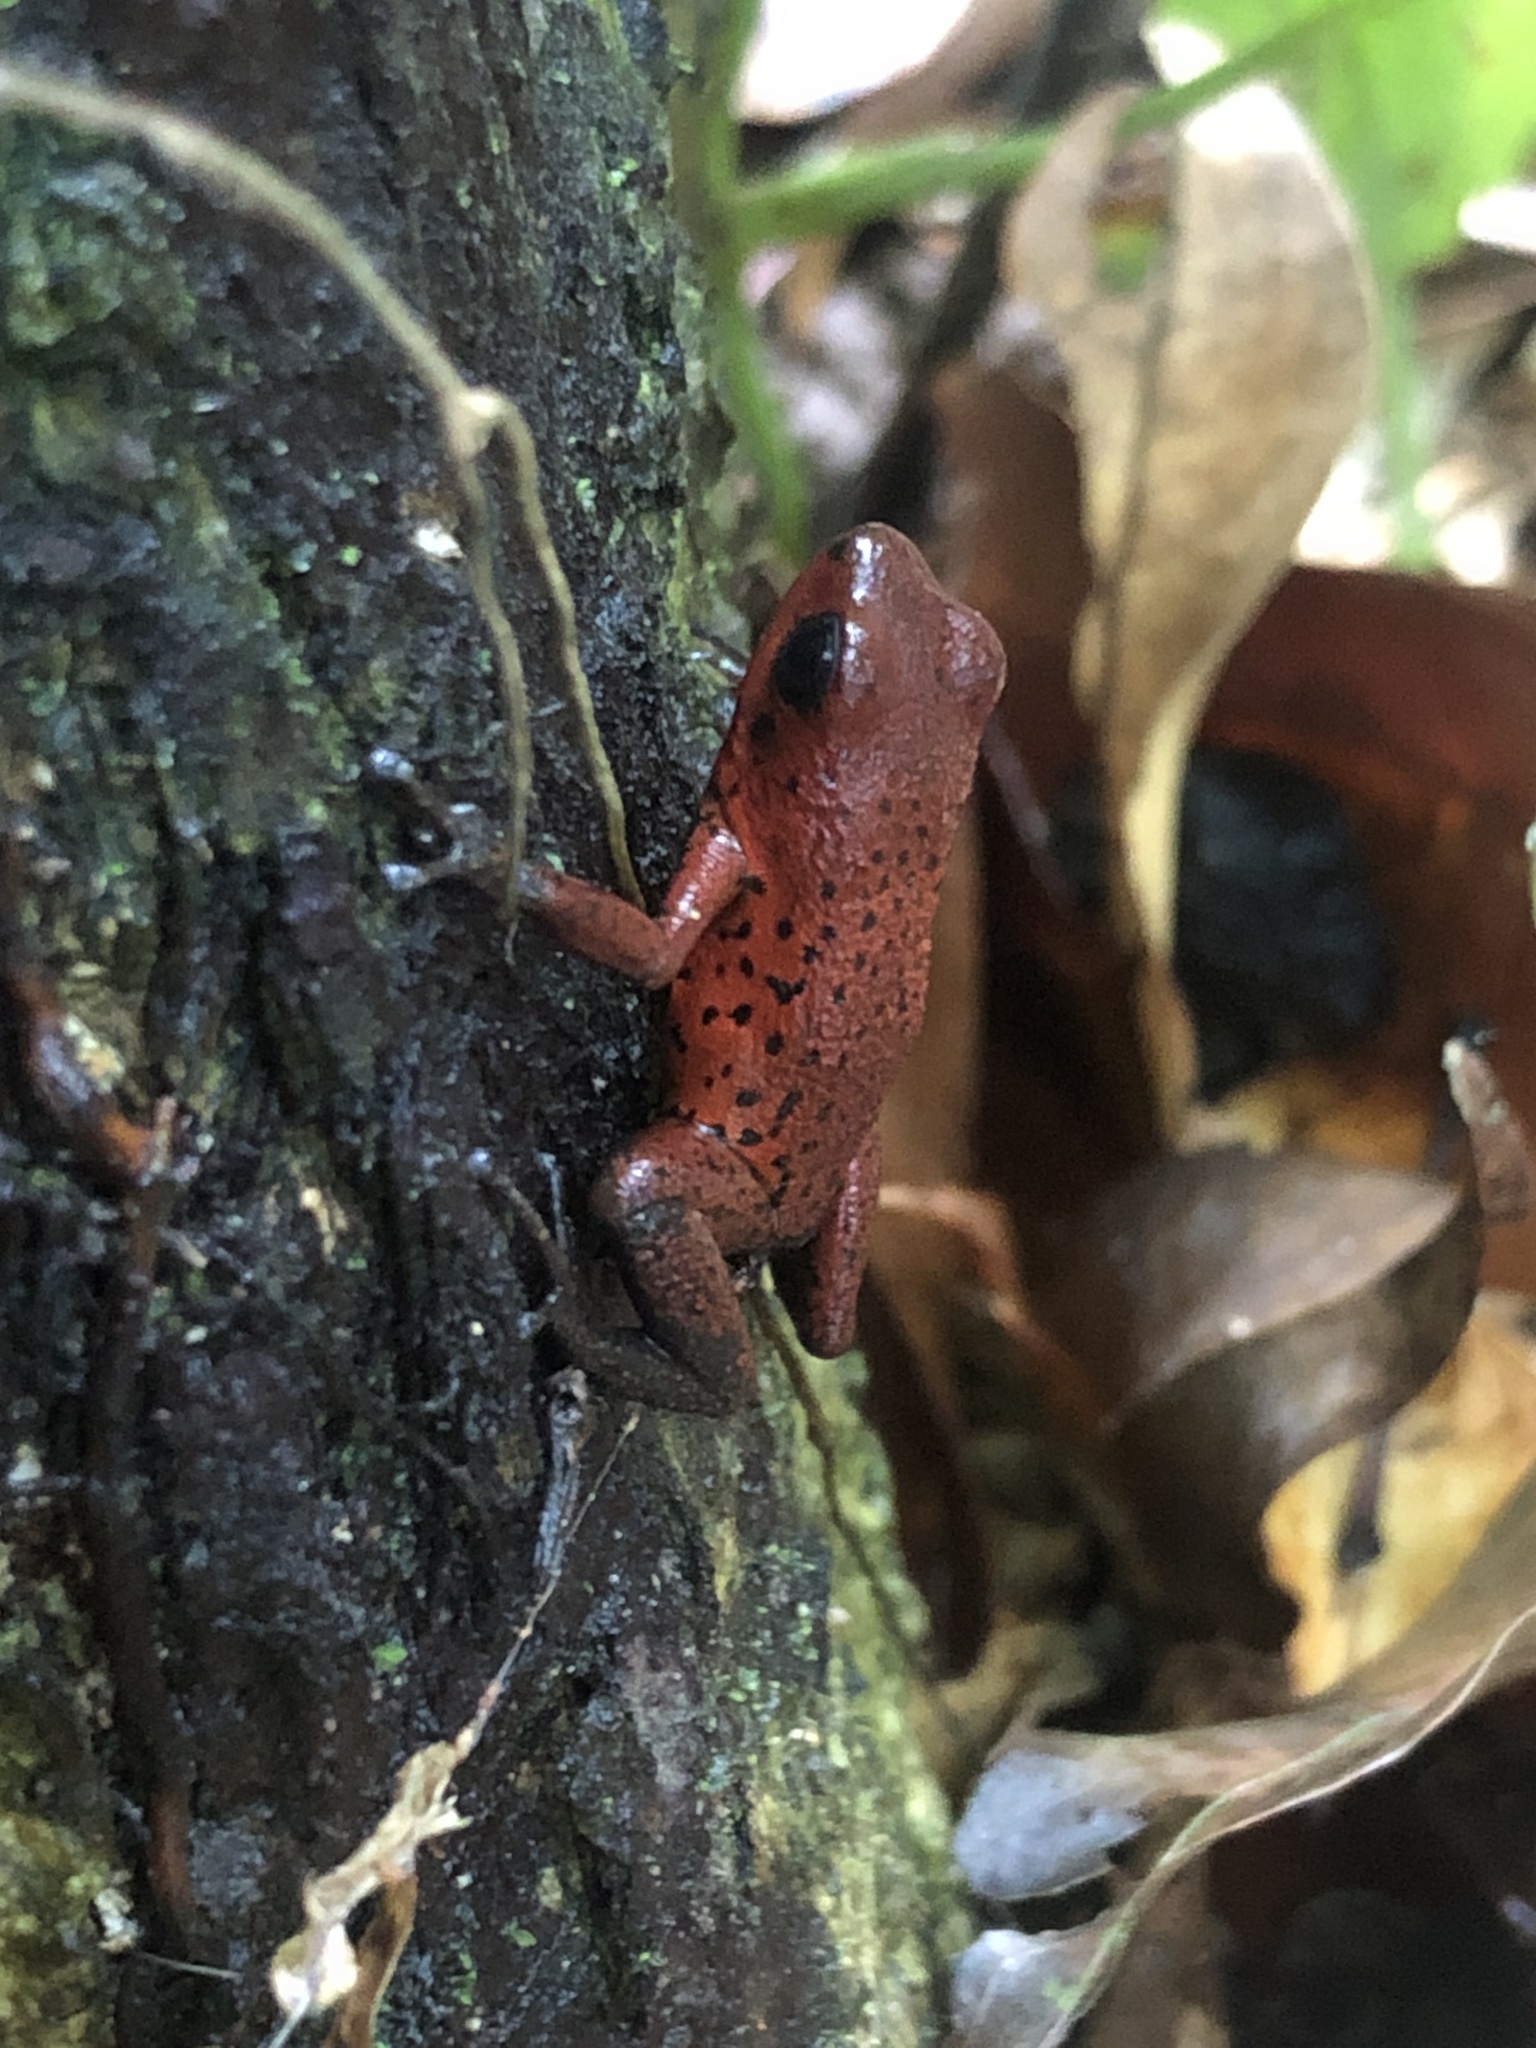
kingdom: Animalia
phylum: Chordata
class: Amphibia
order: Anura
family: Dendrobatidae
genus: Oophaga
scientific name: Oophaga pumilio
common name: Flaming poison frog
